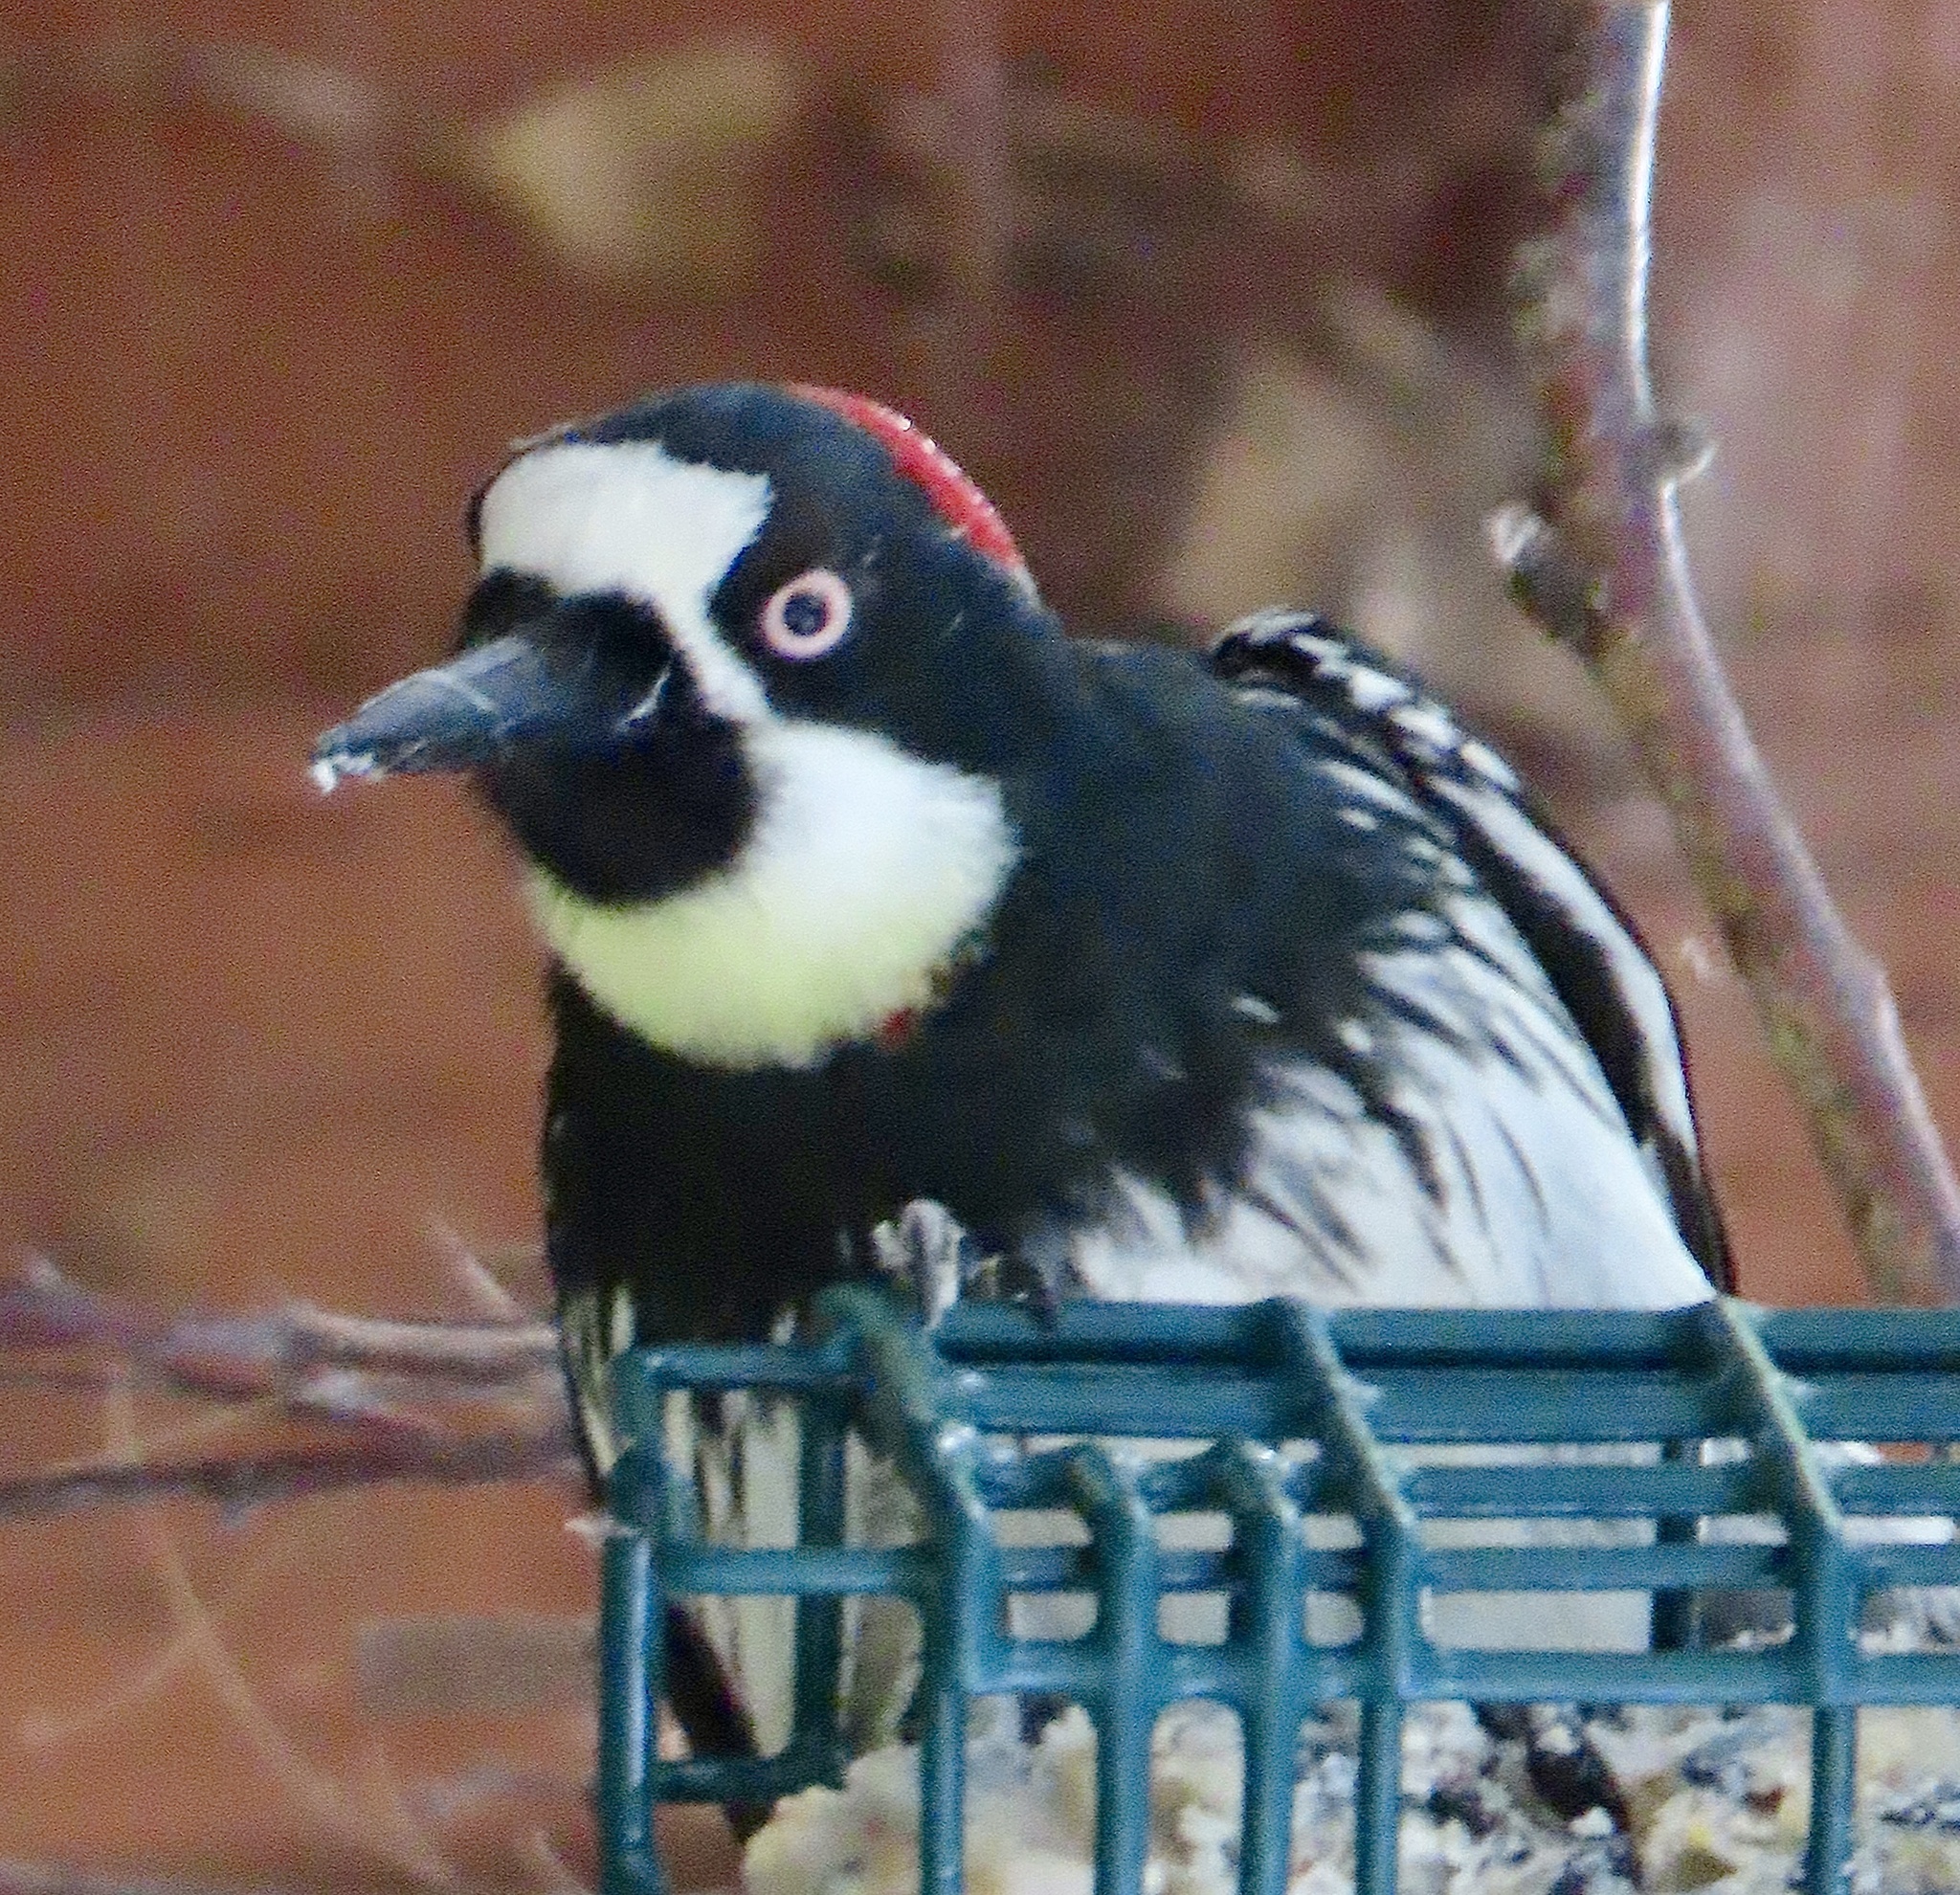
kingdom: Animalia
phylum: Chordata
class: Aves
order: Piciformes
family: Picidae
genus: Melanerpes
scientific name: Melanerpes formicivorus
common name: Acorn woodpecker
